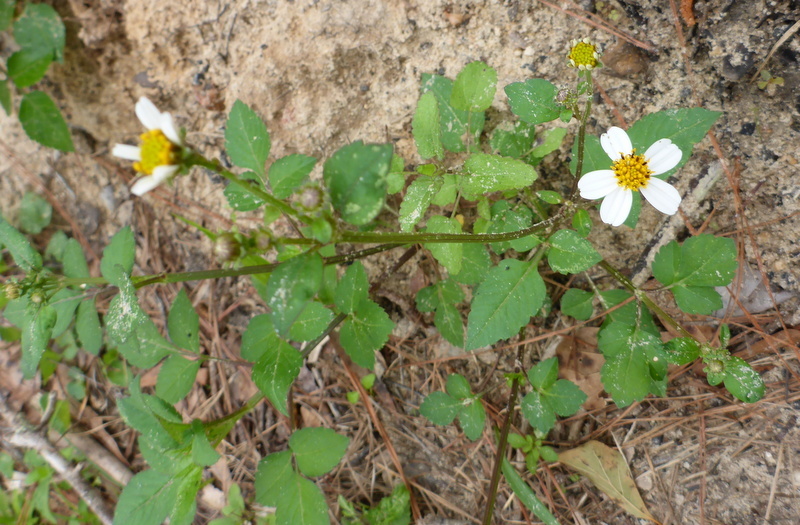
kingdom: Plantae
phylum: Tracheophyta
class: Magnoliopsida
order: Asterales
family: Asteraceae
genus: Bidens
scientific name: Bidens alba
